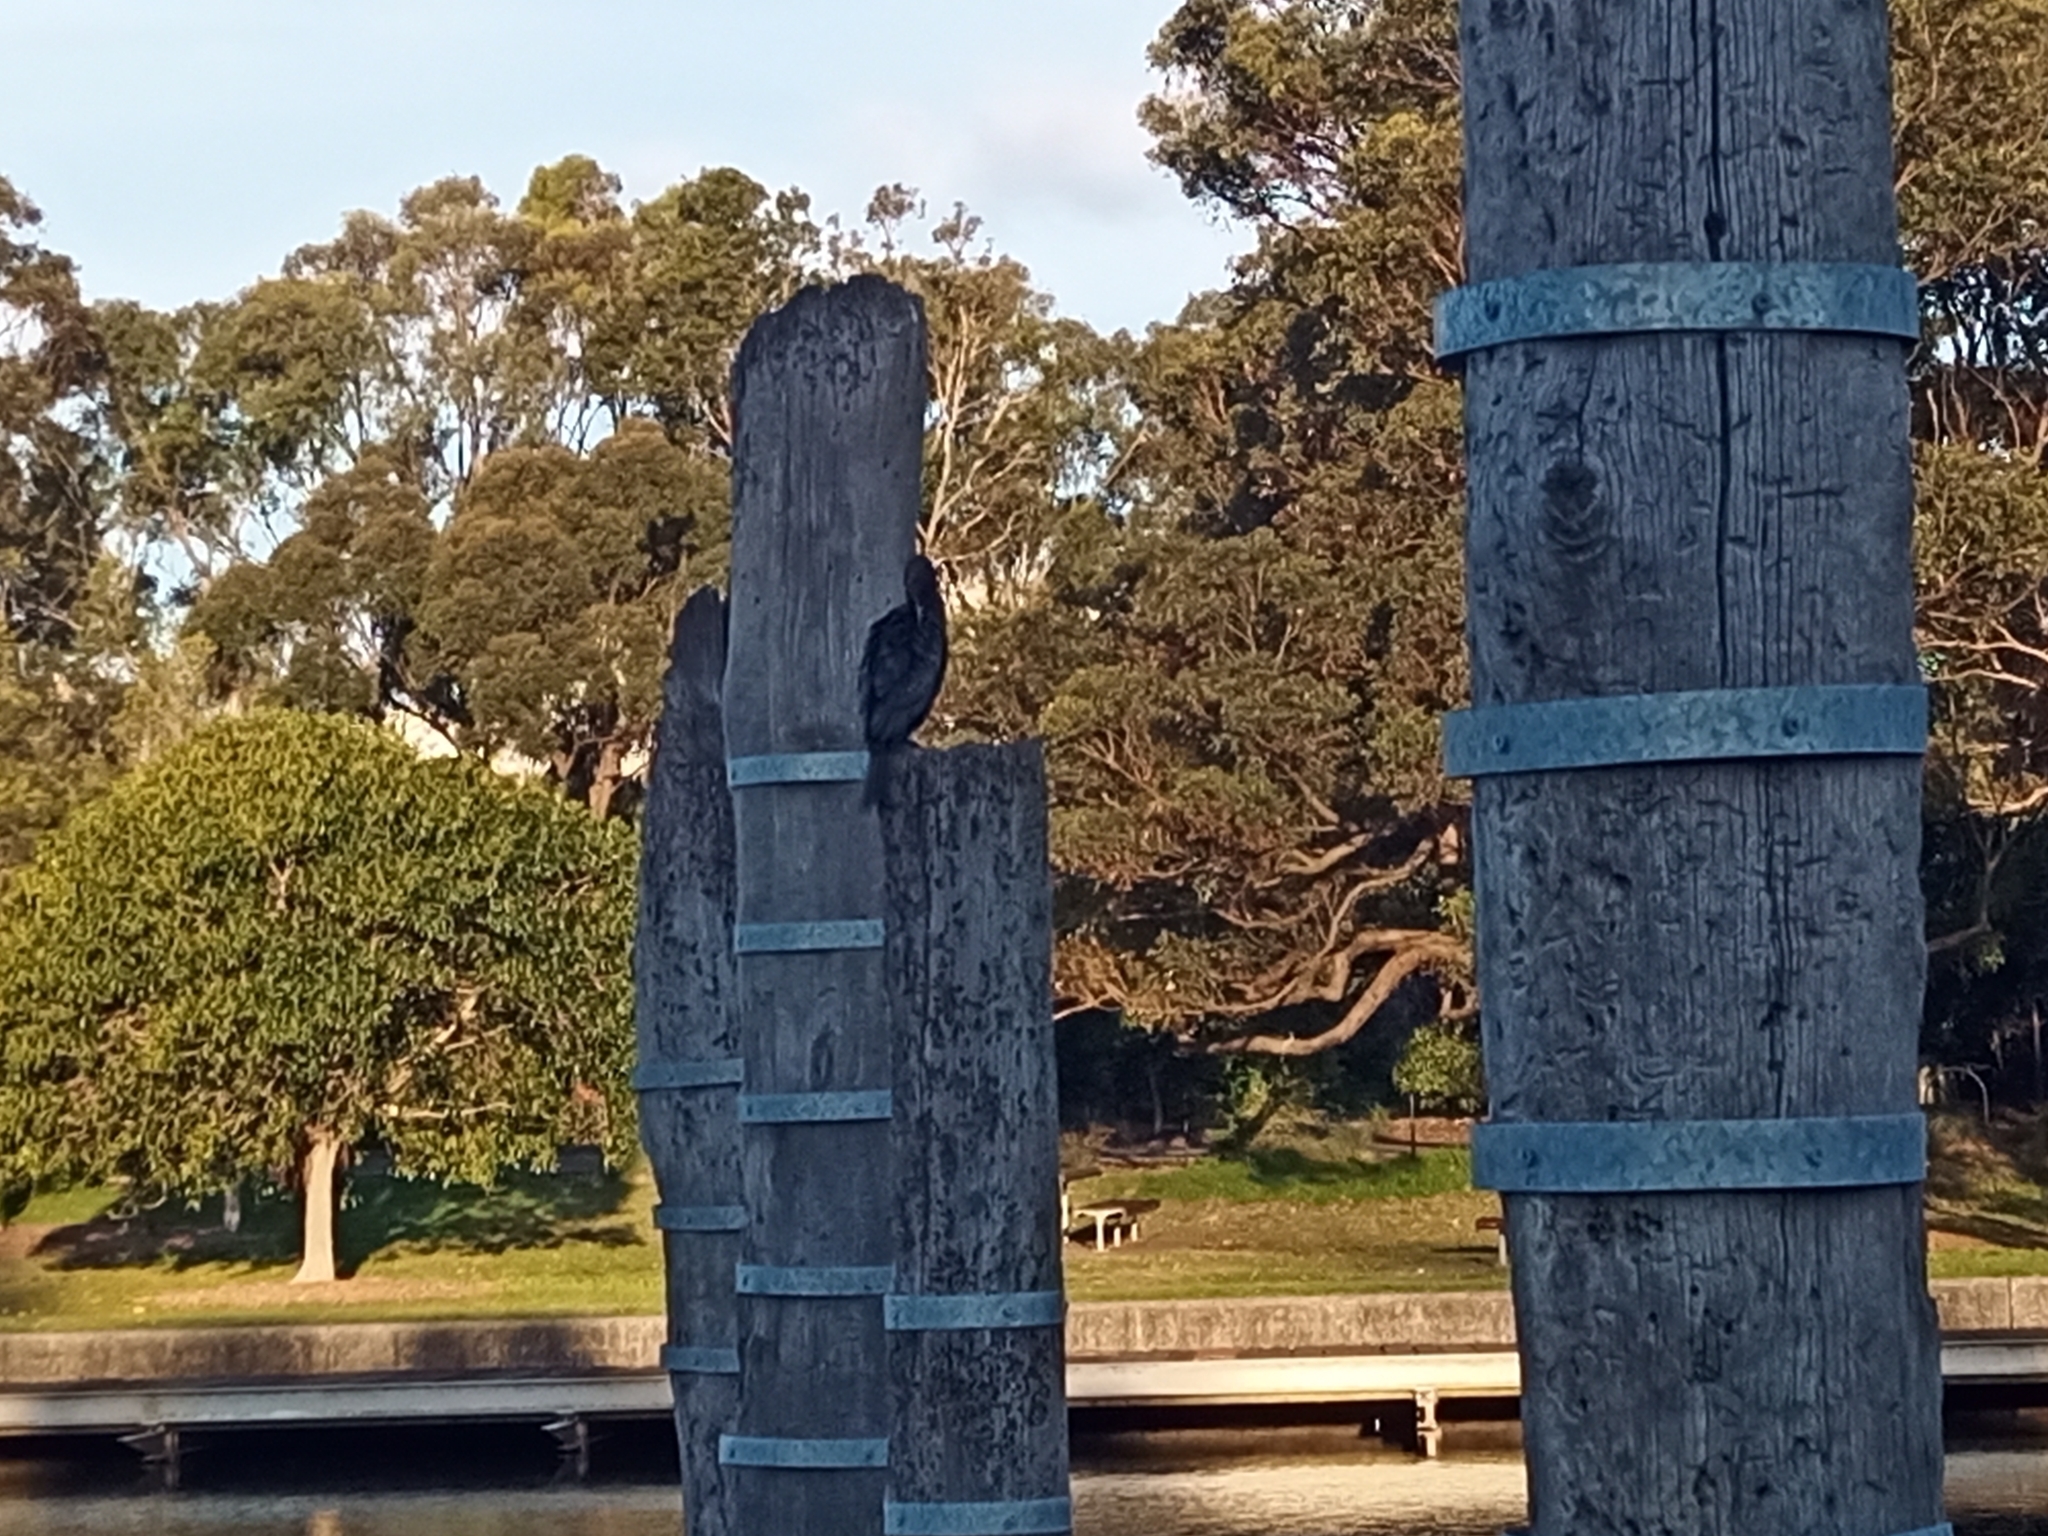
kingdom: Animalia
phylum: Chordata
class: Aves
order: Suliformes
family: Phalacrocoracidae
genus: Phalacrocorax
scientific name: Phalacrocorax sulcirostris
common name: Little black cormorant
